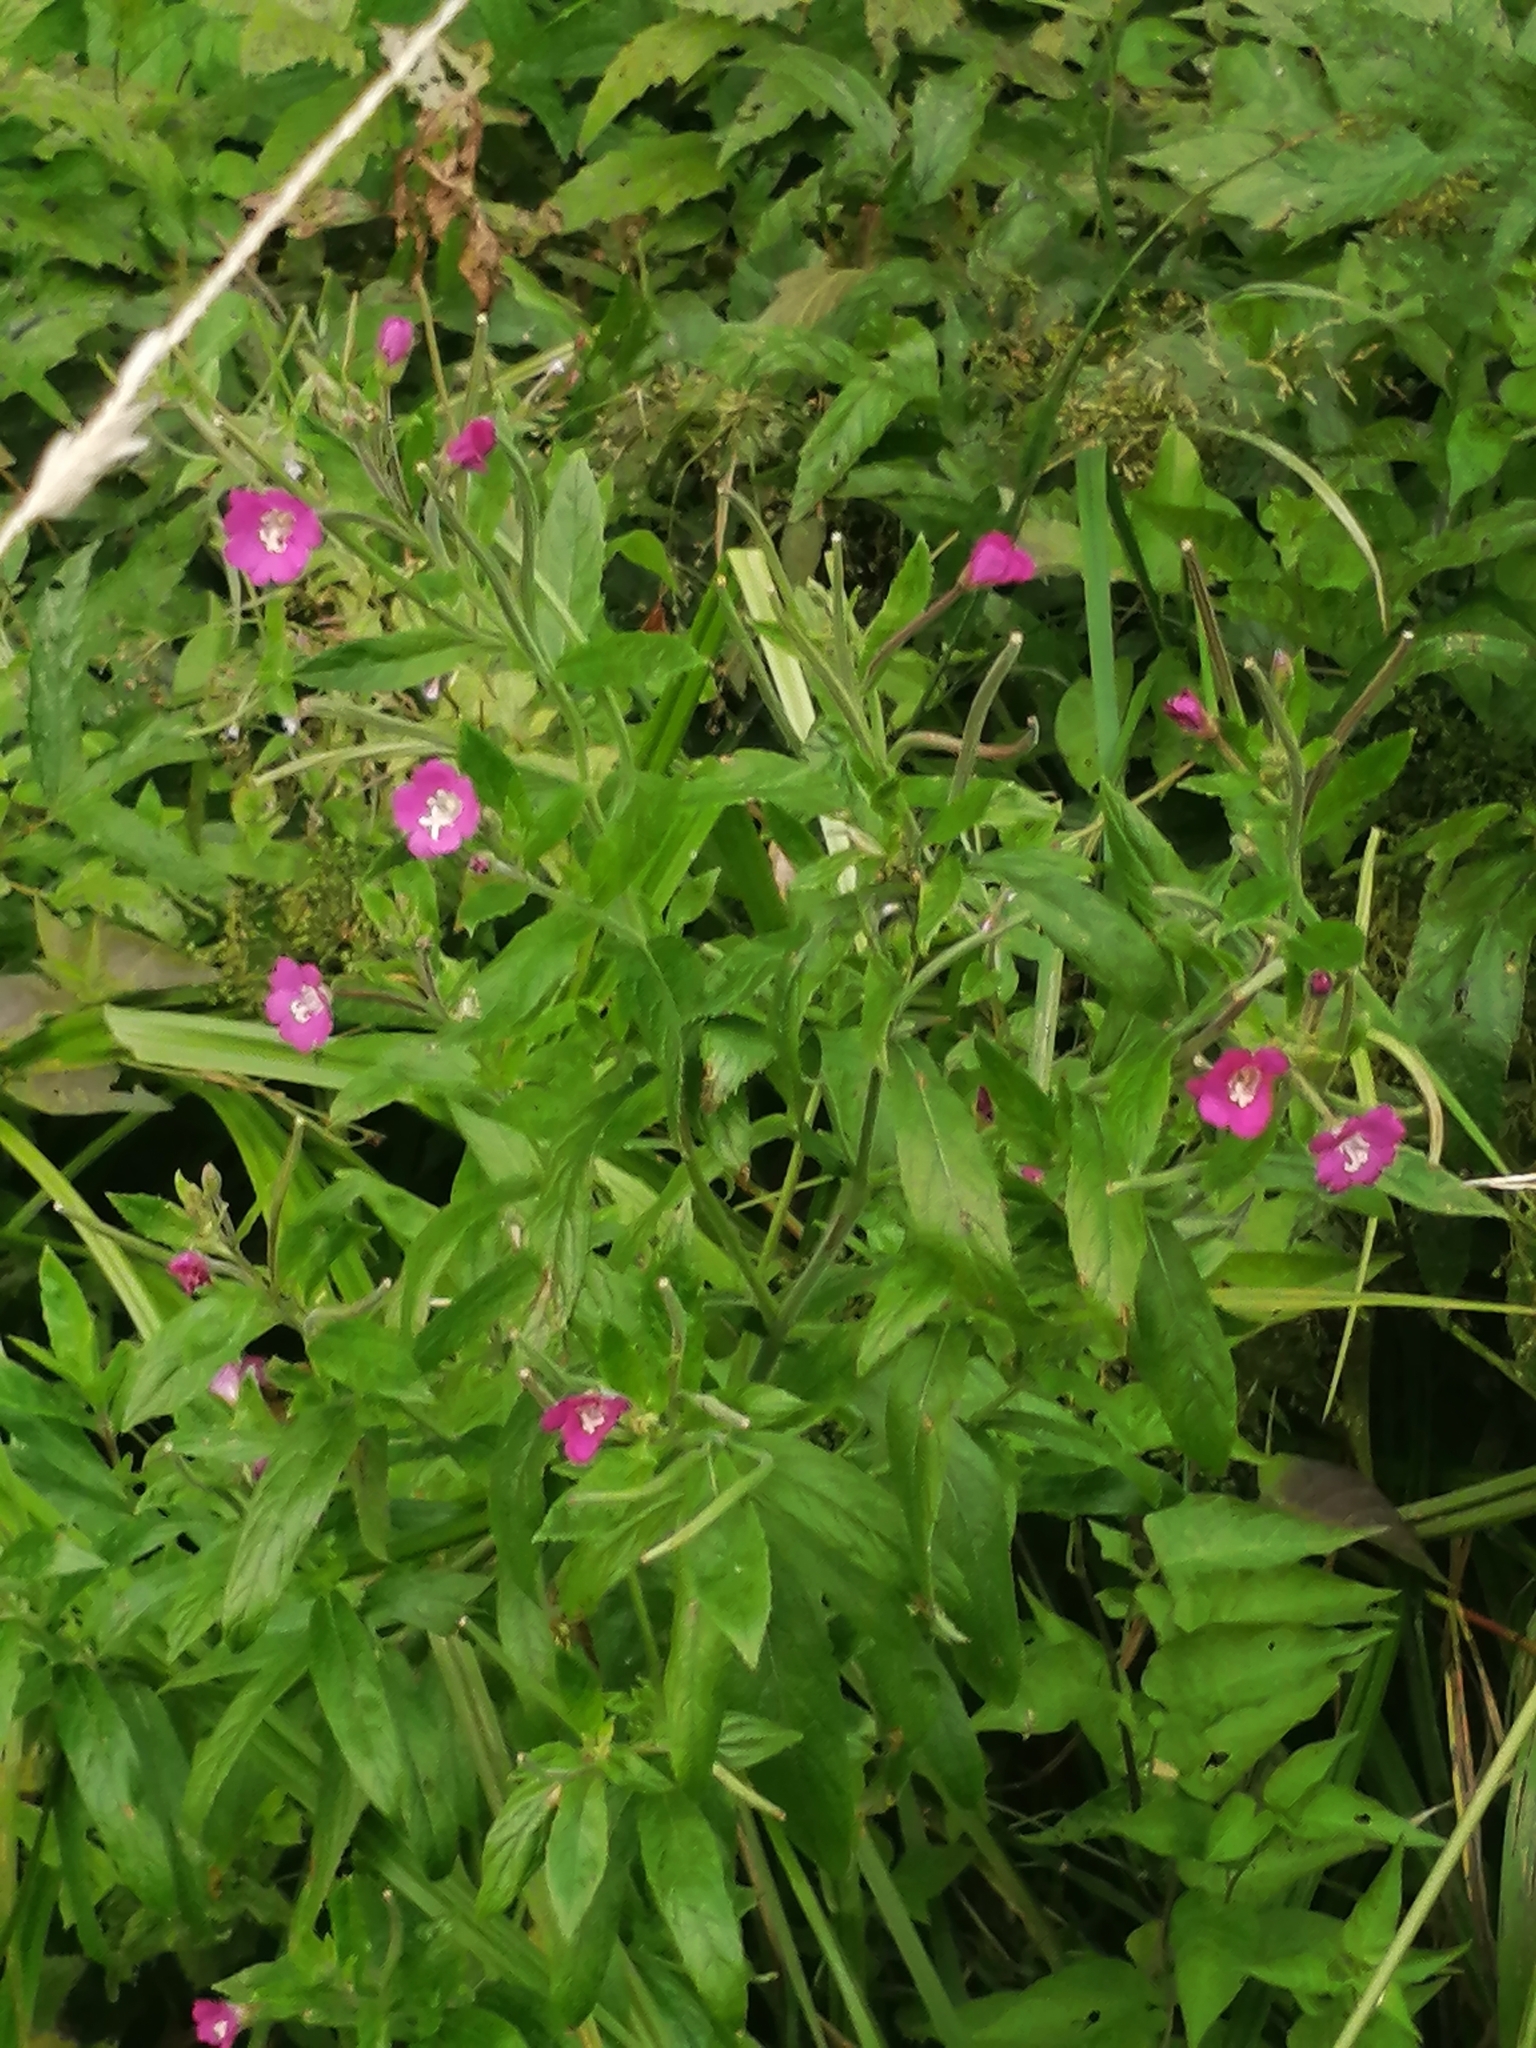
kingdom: Plantae
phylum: Tracheophyta
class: Magnoliopsida
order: Myrtales
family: Onagraceae
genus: Epilobium
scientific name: Epilobium hirsutum
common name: Great willowherb
